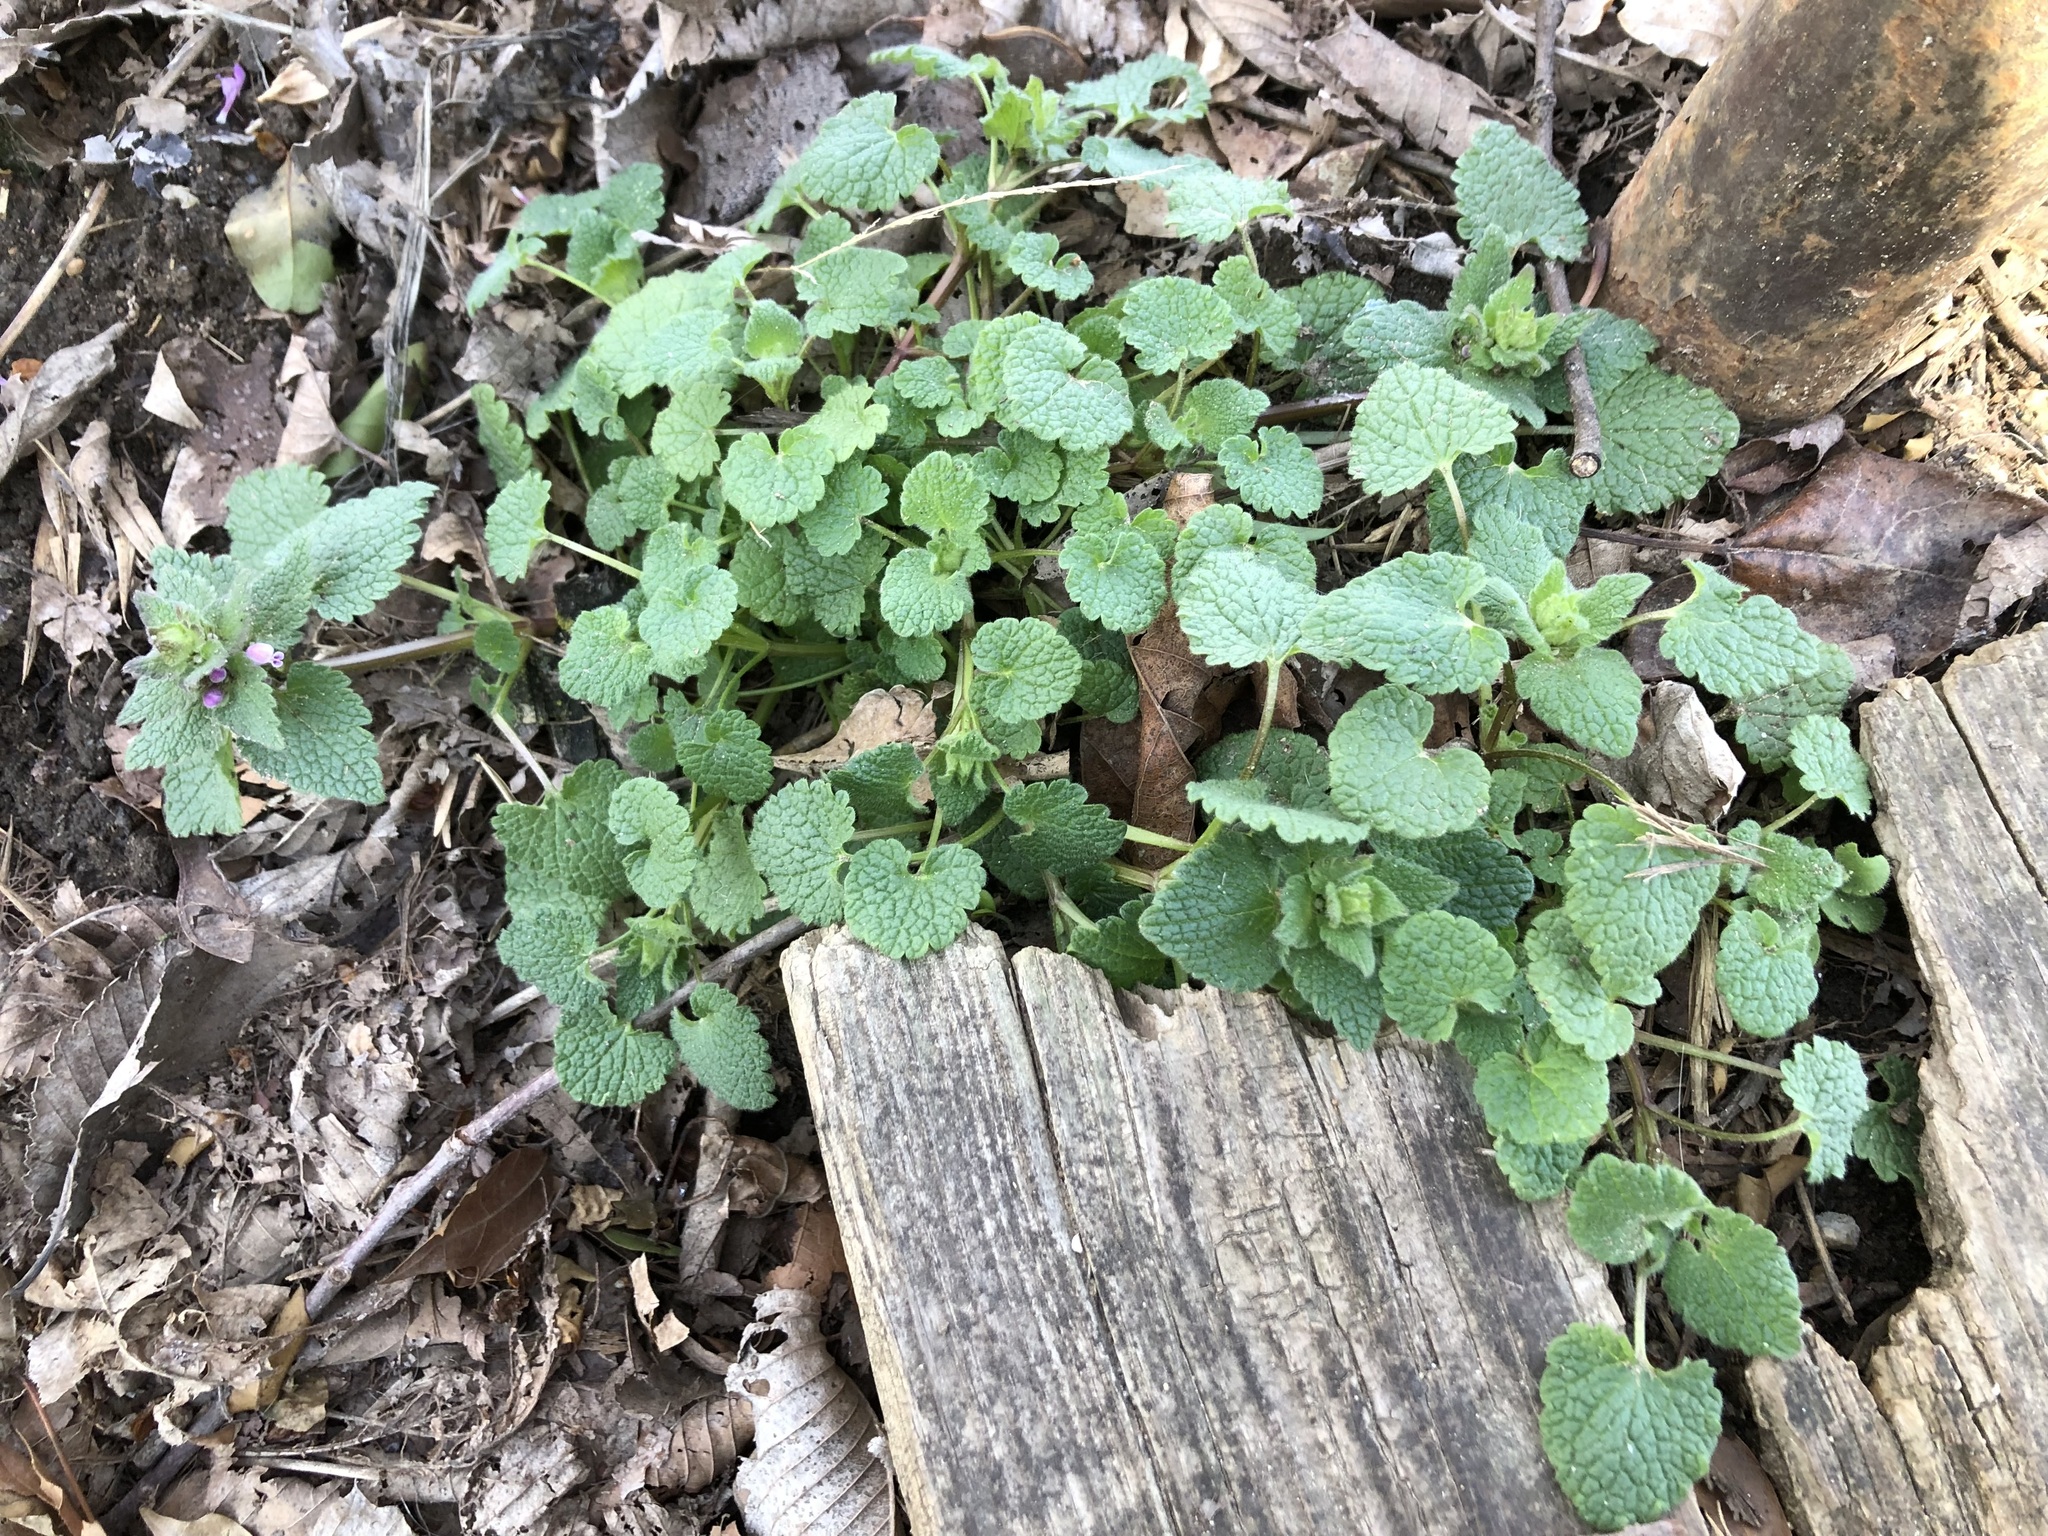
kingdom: Plantae
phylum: Tracheophyta
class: Magnoliopsida
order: Lamiales
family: Lamiaceae
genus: Lamium
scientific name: Lamium purpureum
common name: Red dead-nettle
